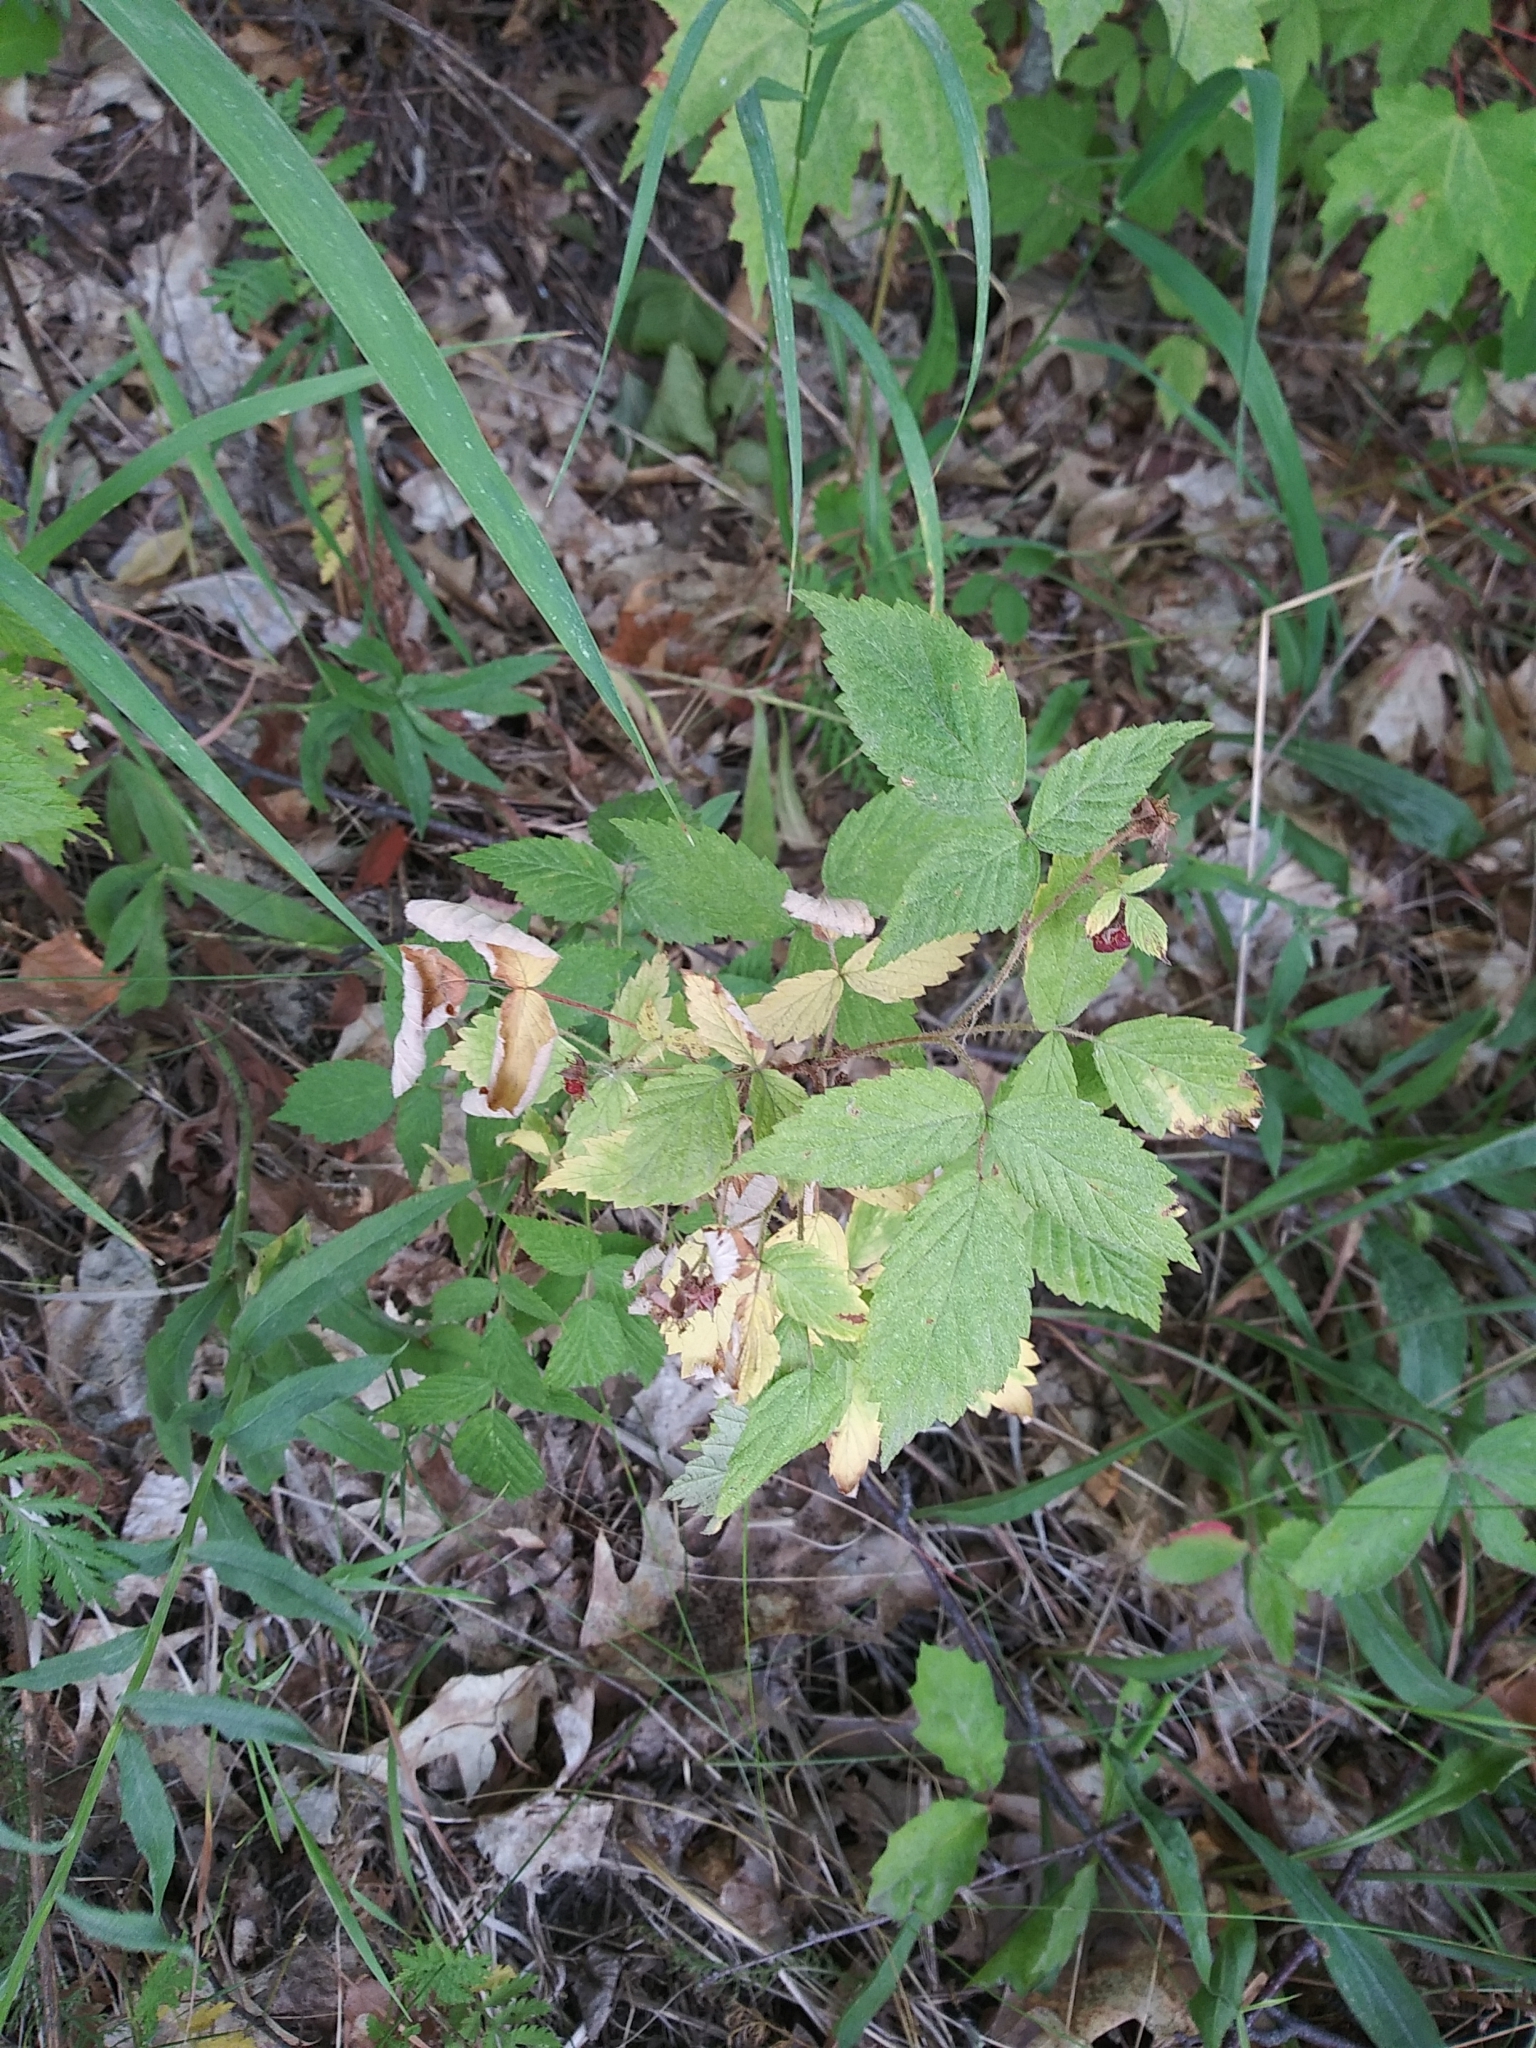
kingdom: Plantae
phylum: Tracheophyta
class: Magnoliopsida
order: Rosales
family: Rosaceae
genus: Rubus
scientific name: Rubus idaeus
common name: Raspberry
